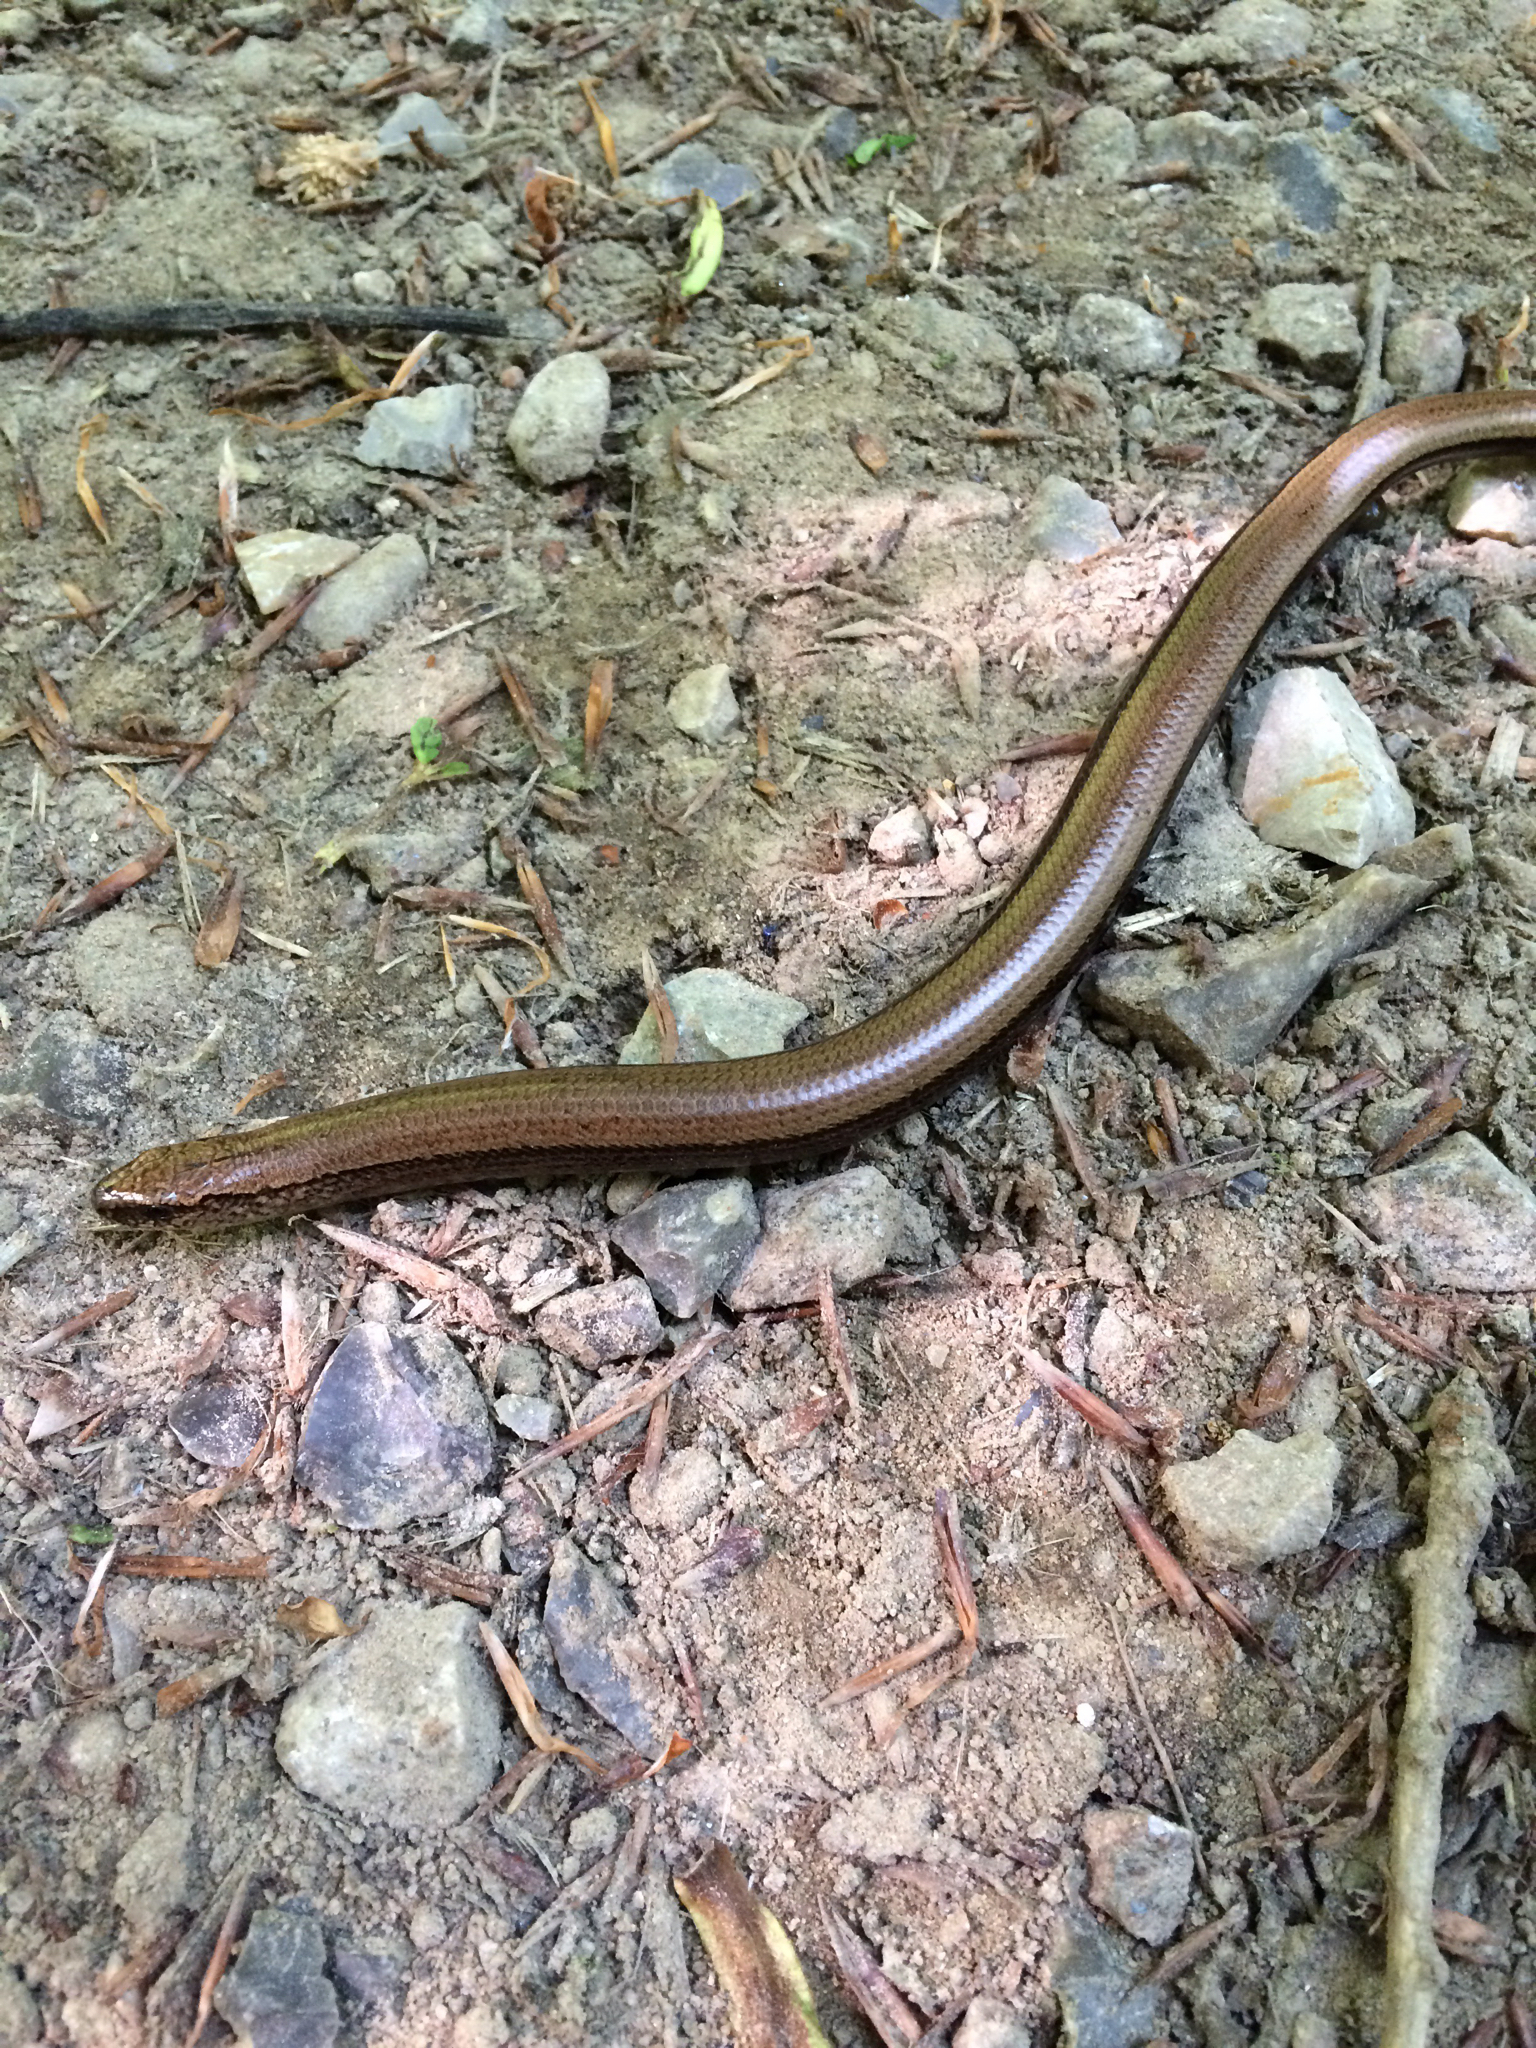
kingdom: Animalia
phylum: Chordata
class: Squamata
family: Anguidae
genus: Anguis
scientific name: Anguis fragilis
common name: Slow worm
